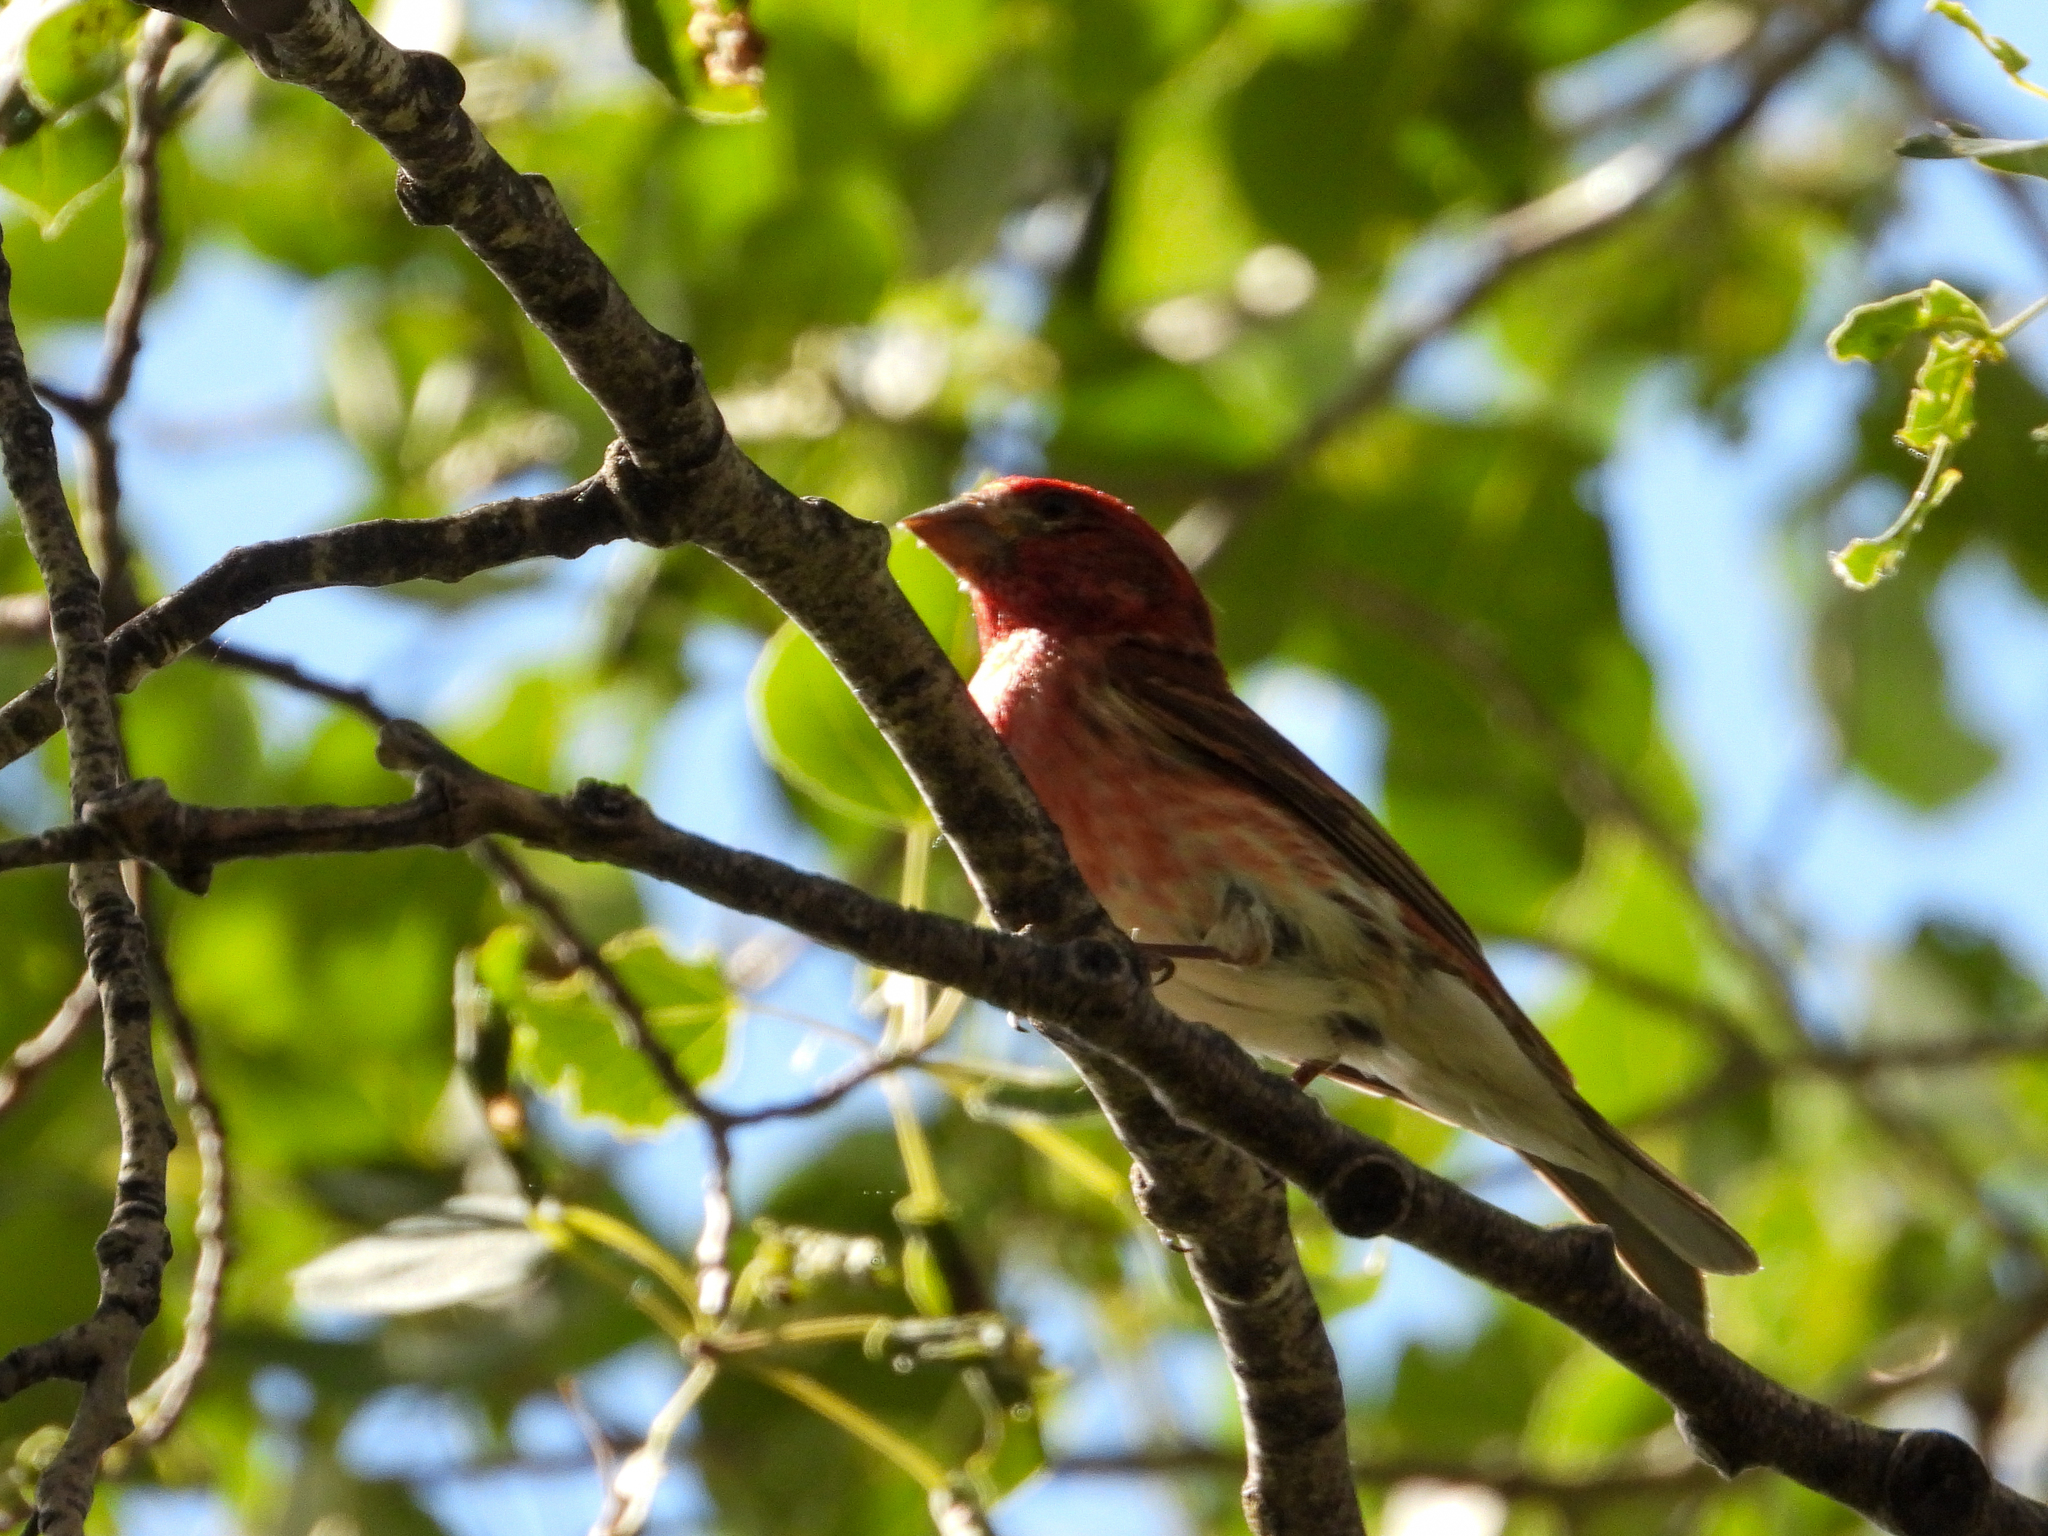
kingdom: Animalia
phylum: Chordata
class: Aves
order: Passeriformes
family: Fringillidae
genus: Haemorhous
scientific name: Haemorhous purpureus
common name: Purple finch
